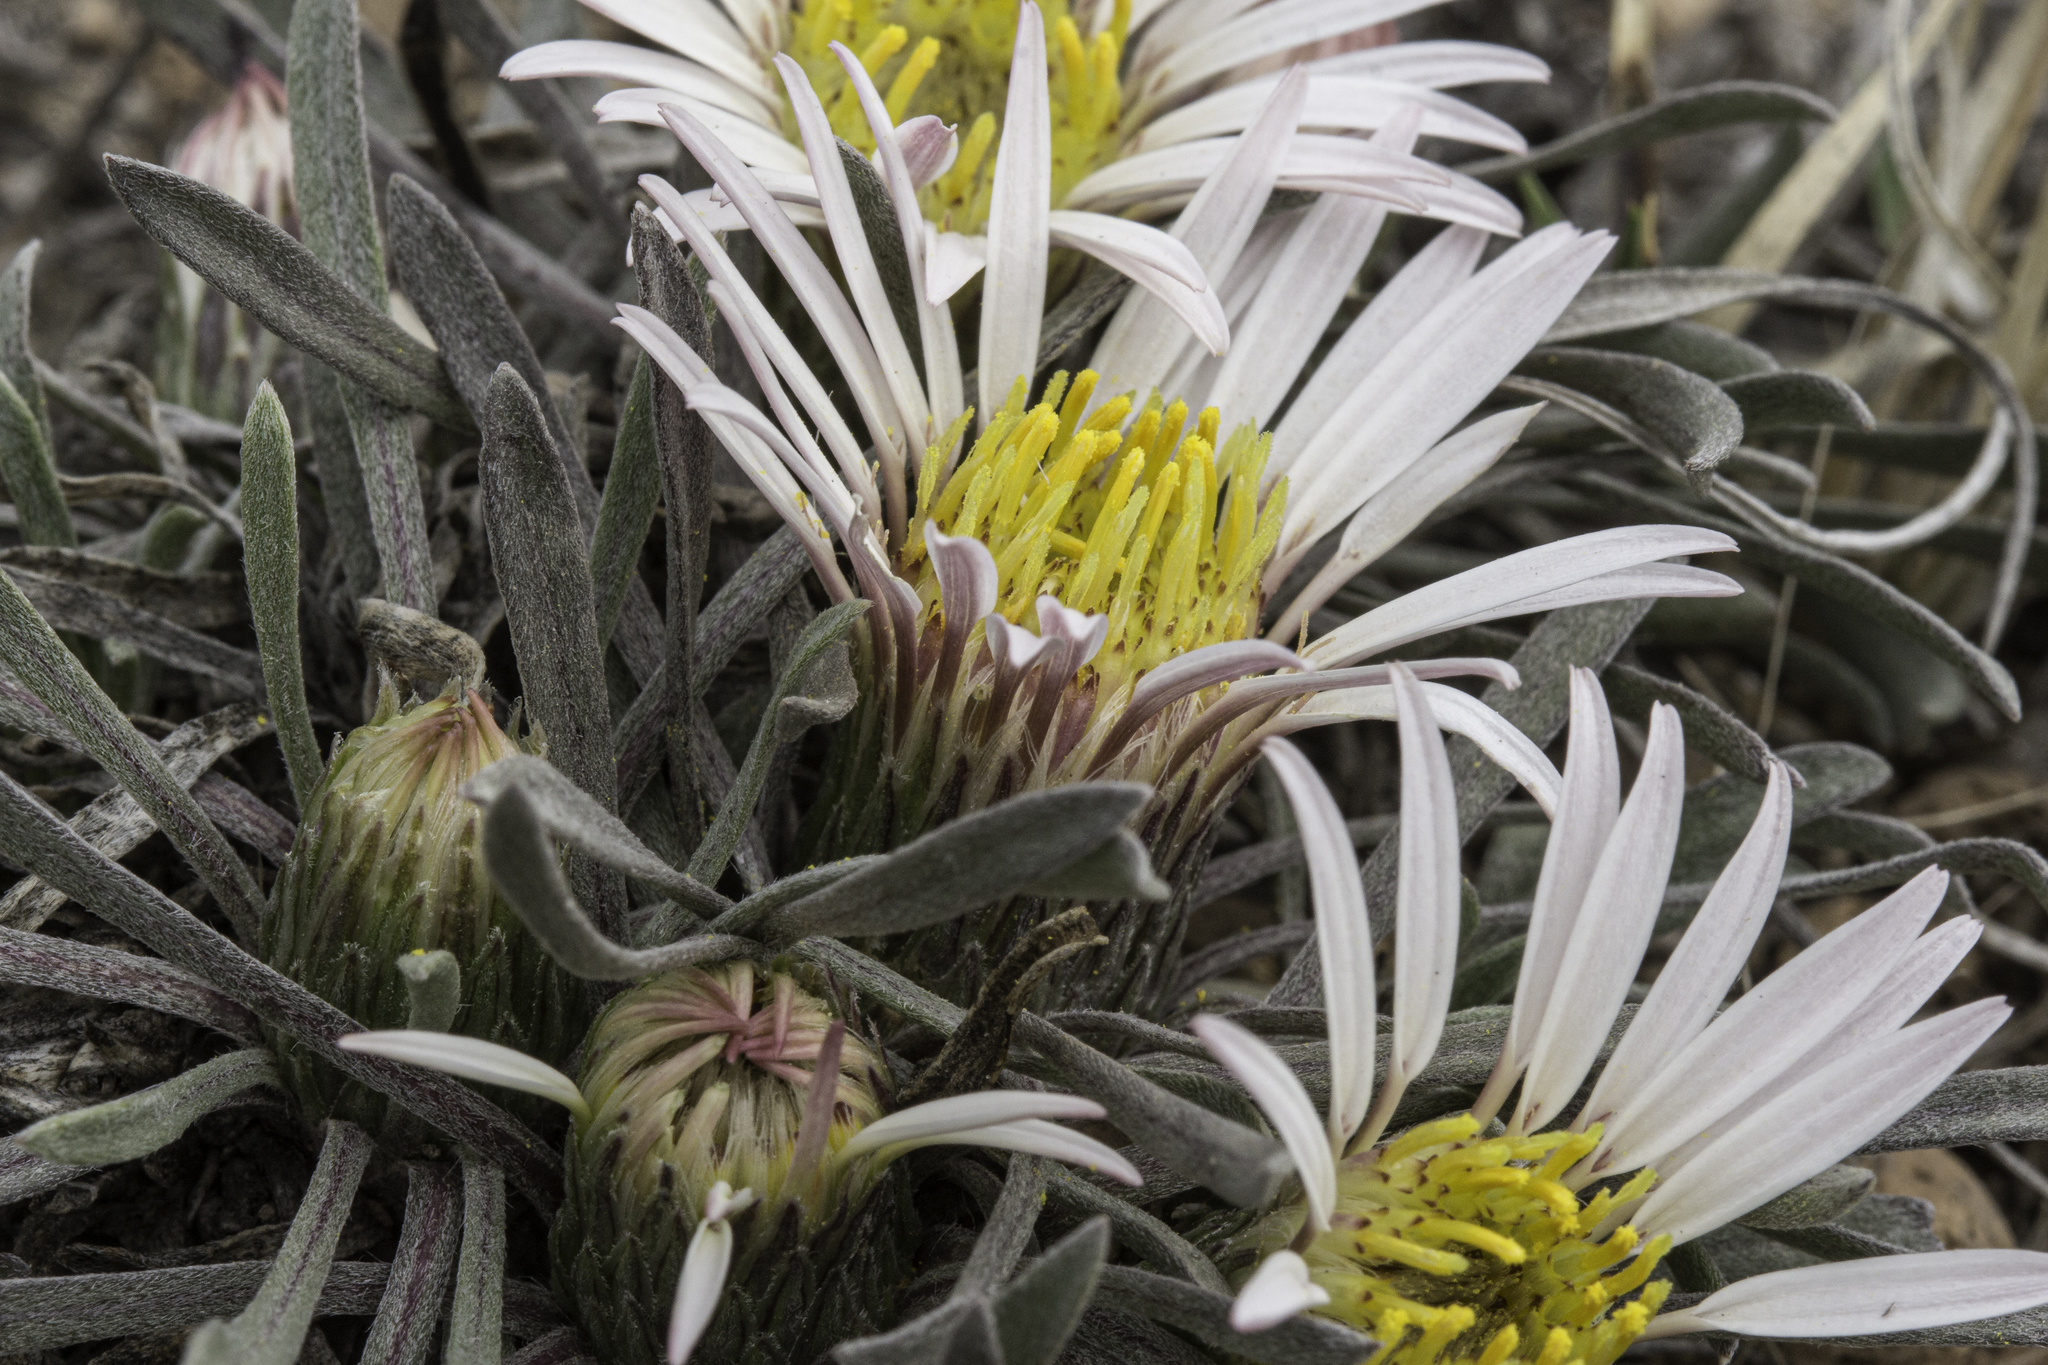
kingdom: Plantae
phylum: Tracheophyta
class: Magnoliopsida
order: Asterales
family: Asteraceae
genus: Townsendia
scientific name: Townsendia exscapa
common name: Dwarf townsendia
